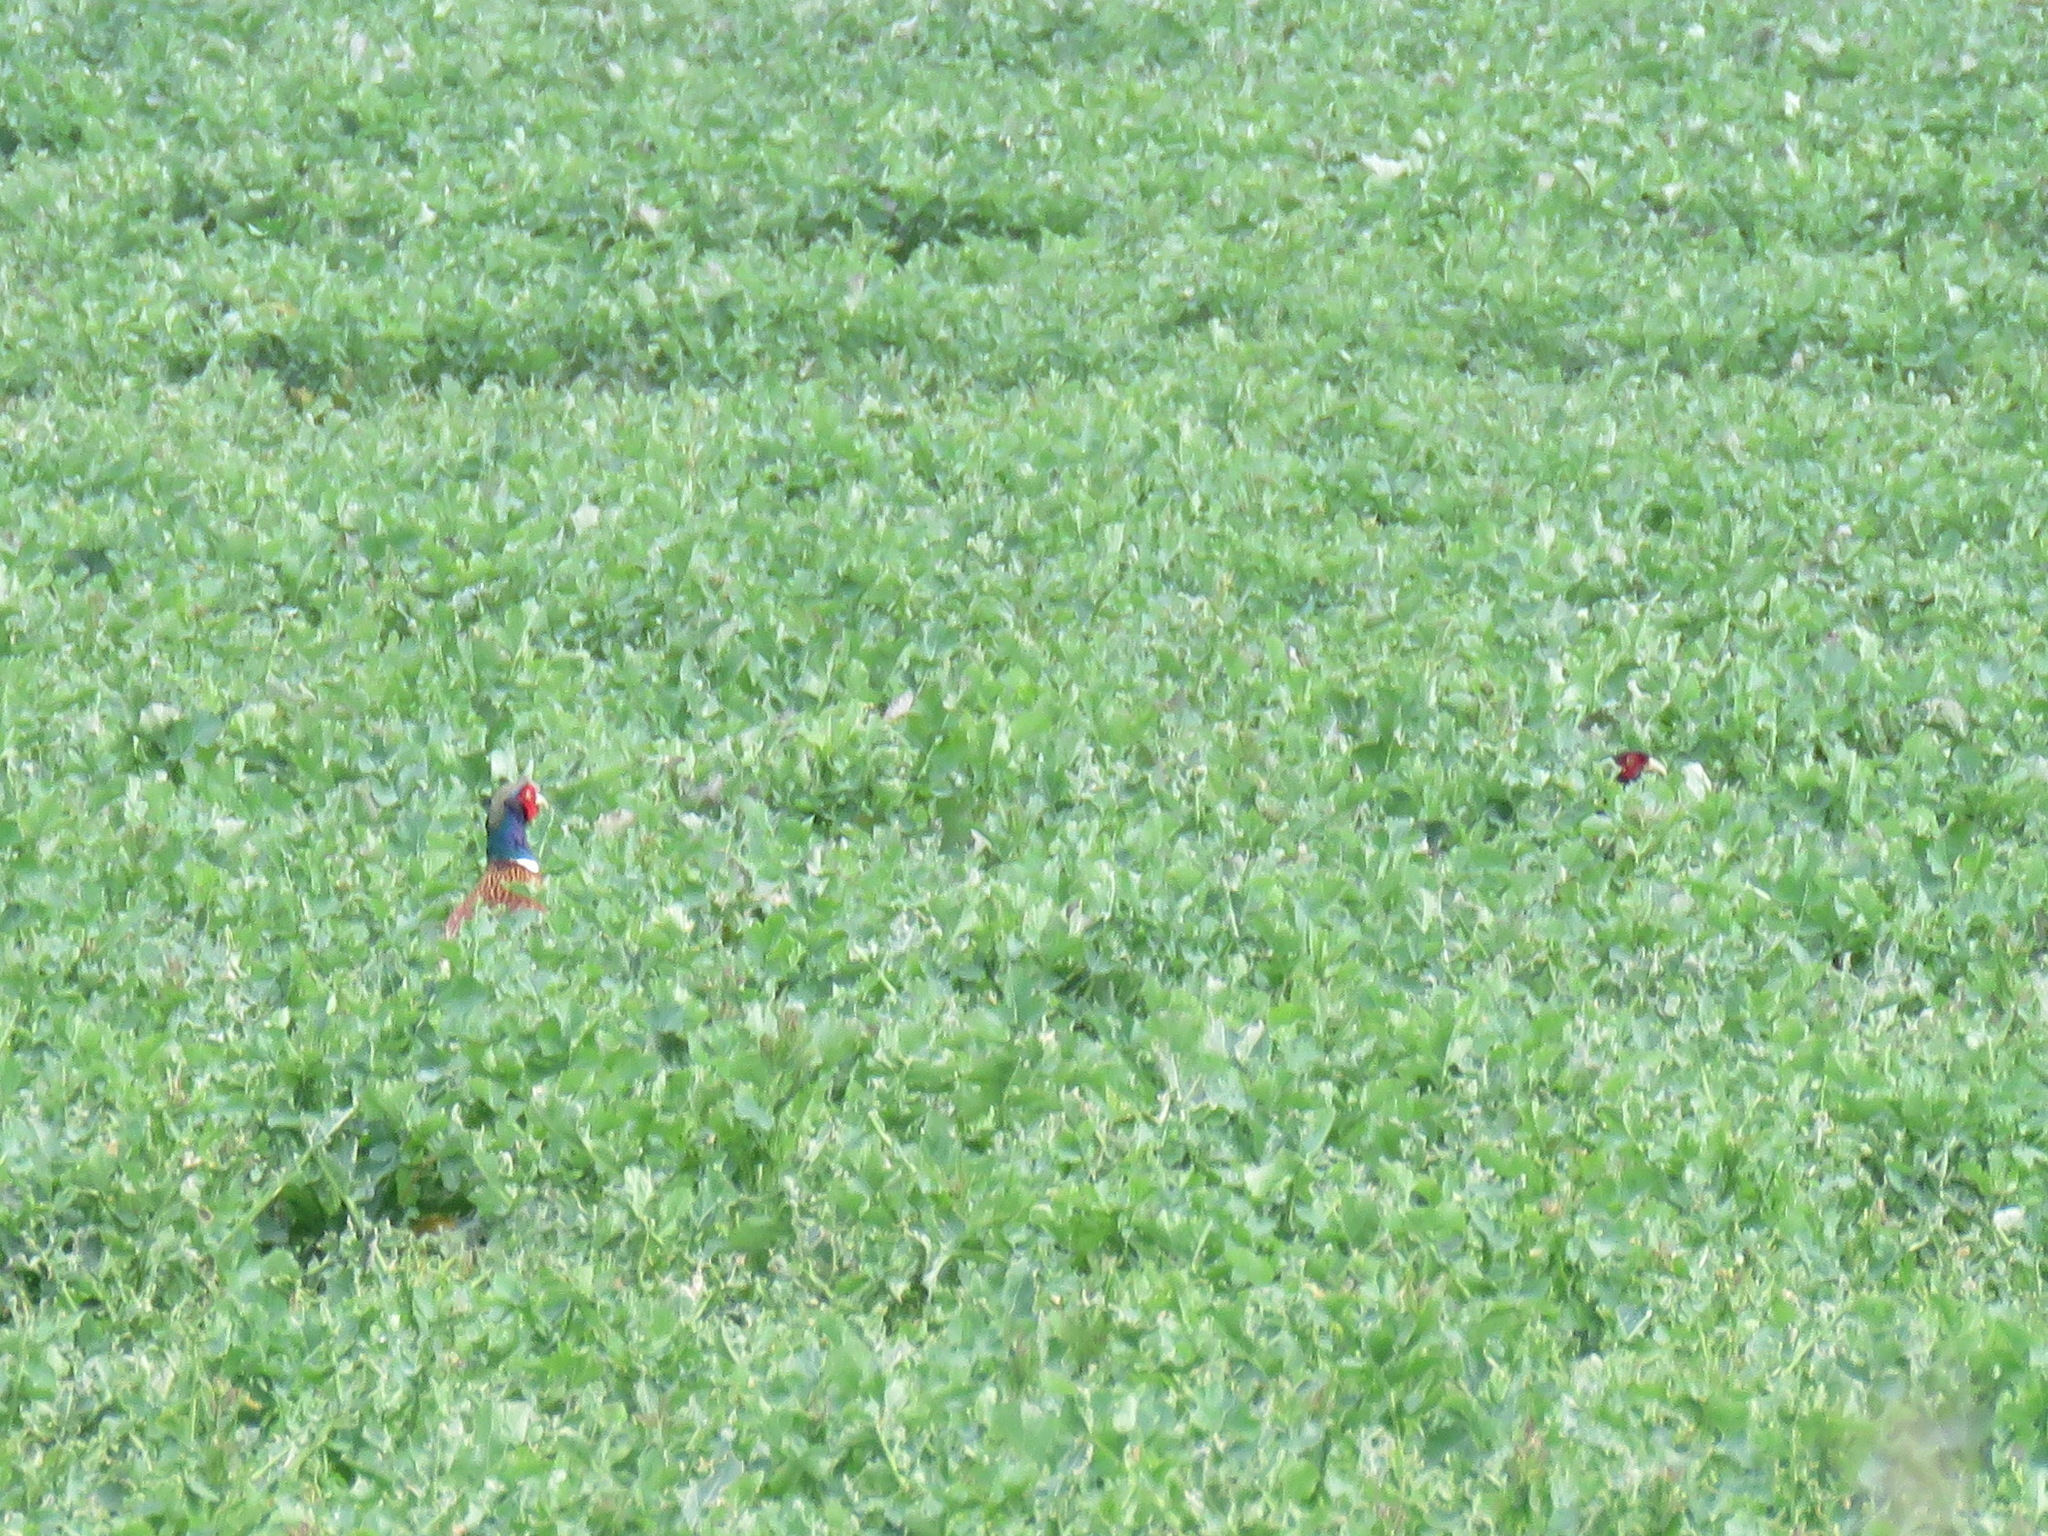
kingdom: Animalia
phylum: Chordata
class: Aves
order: Galliformes
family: Phasianidae
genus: Phasianus
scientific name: Phasianus colchicus
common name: Common pheasant
